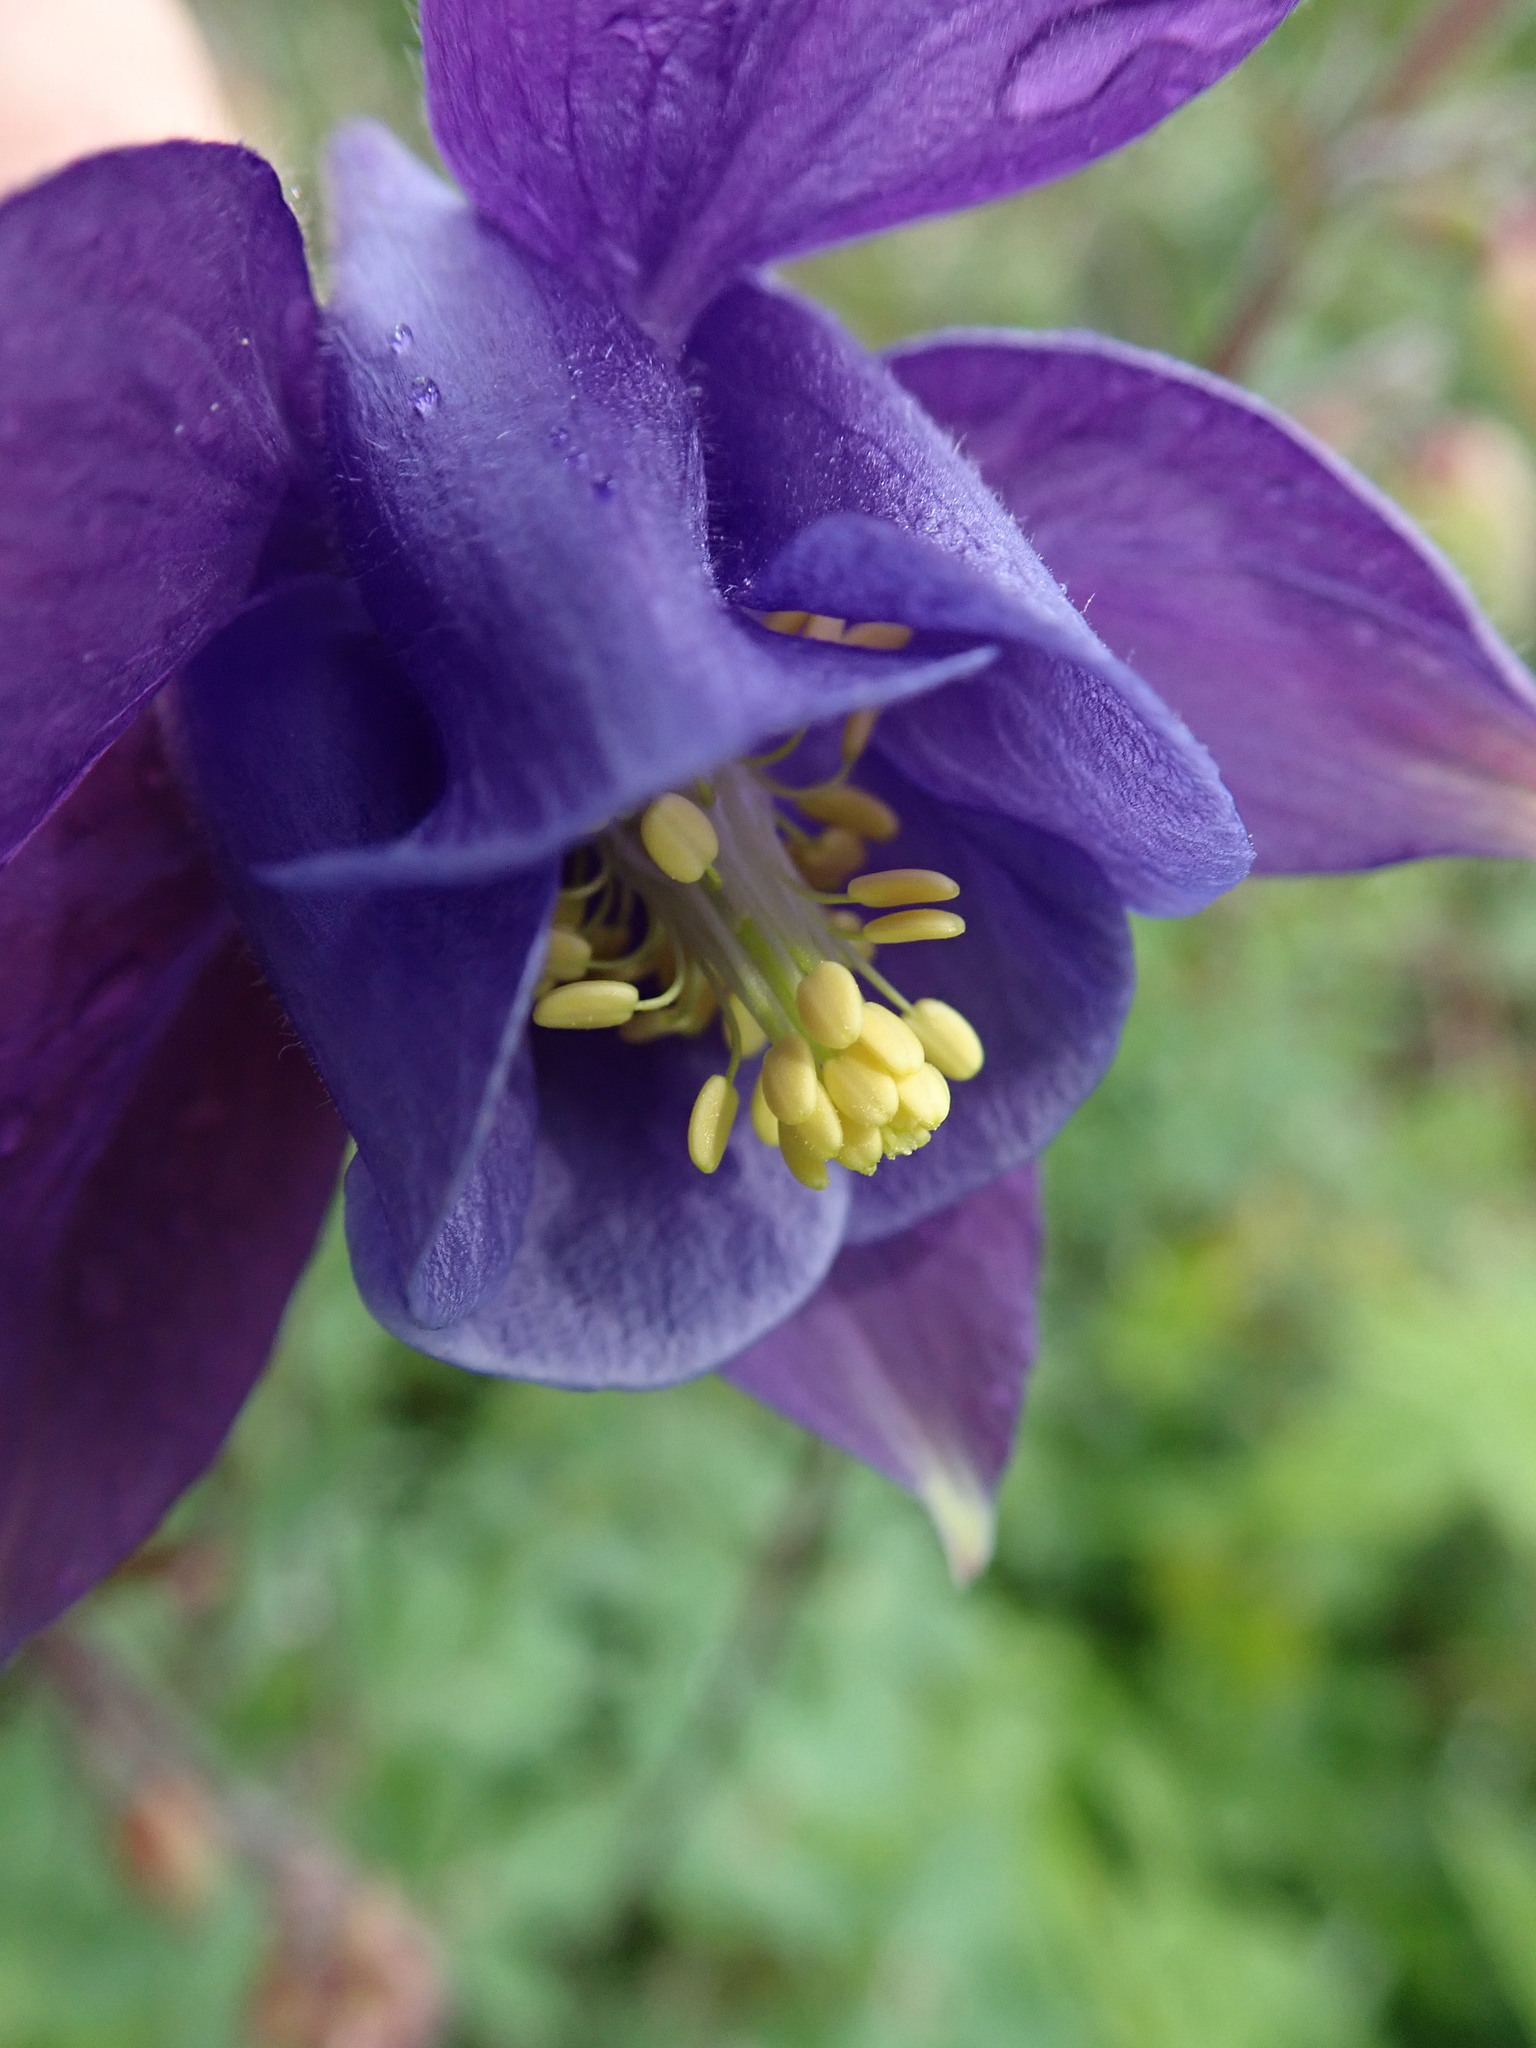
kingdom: Plantae
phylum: Tracheophyta
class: Magnoliopsida
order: Ranunculales
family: Ranunculaceae
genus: Aquilegia
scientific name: Aquilegia vulgaris
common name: Columbine
